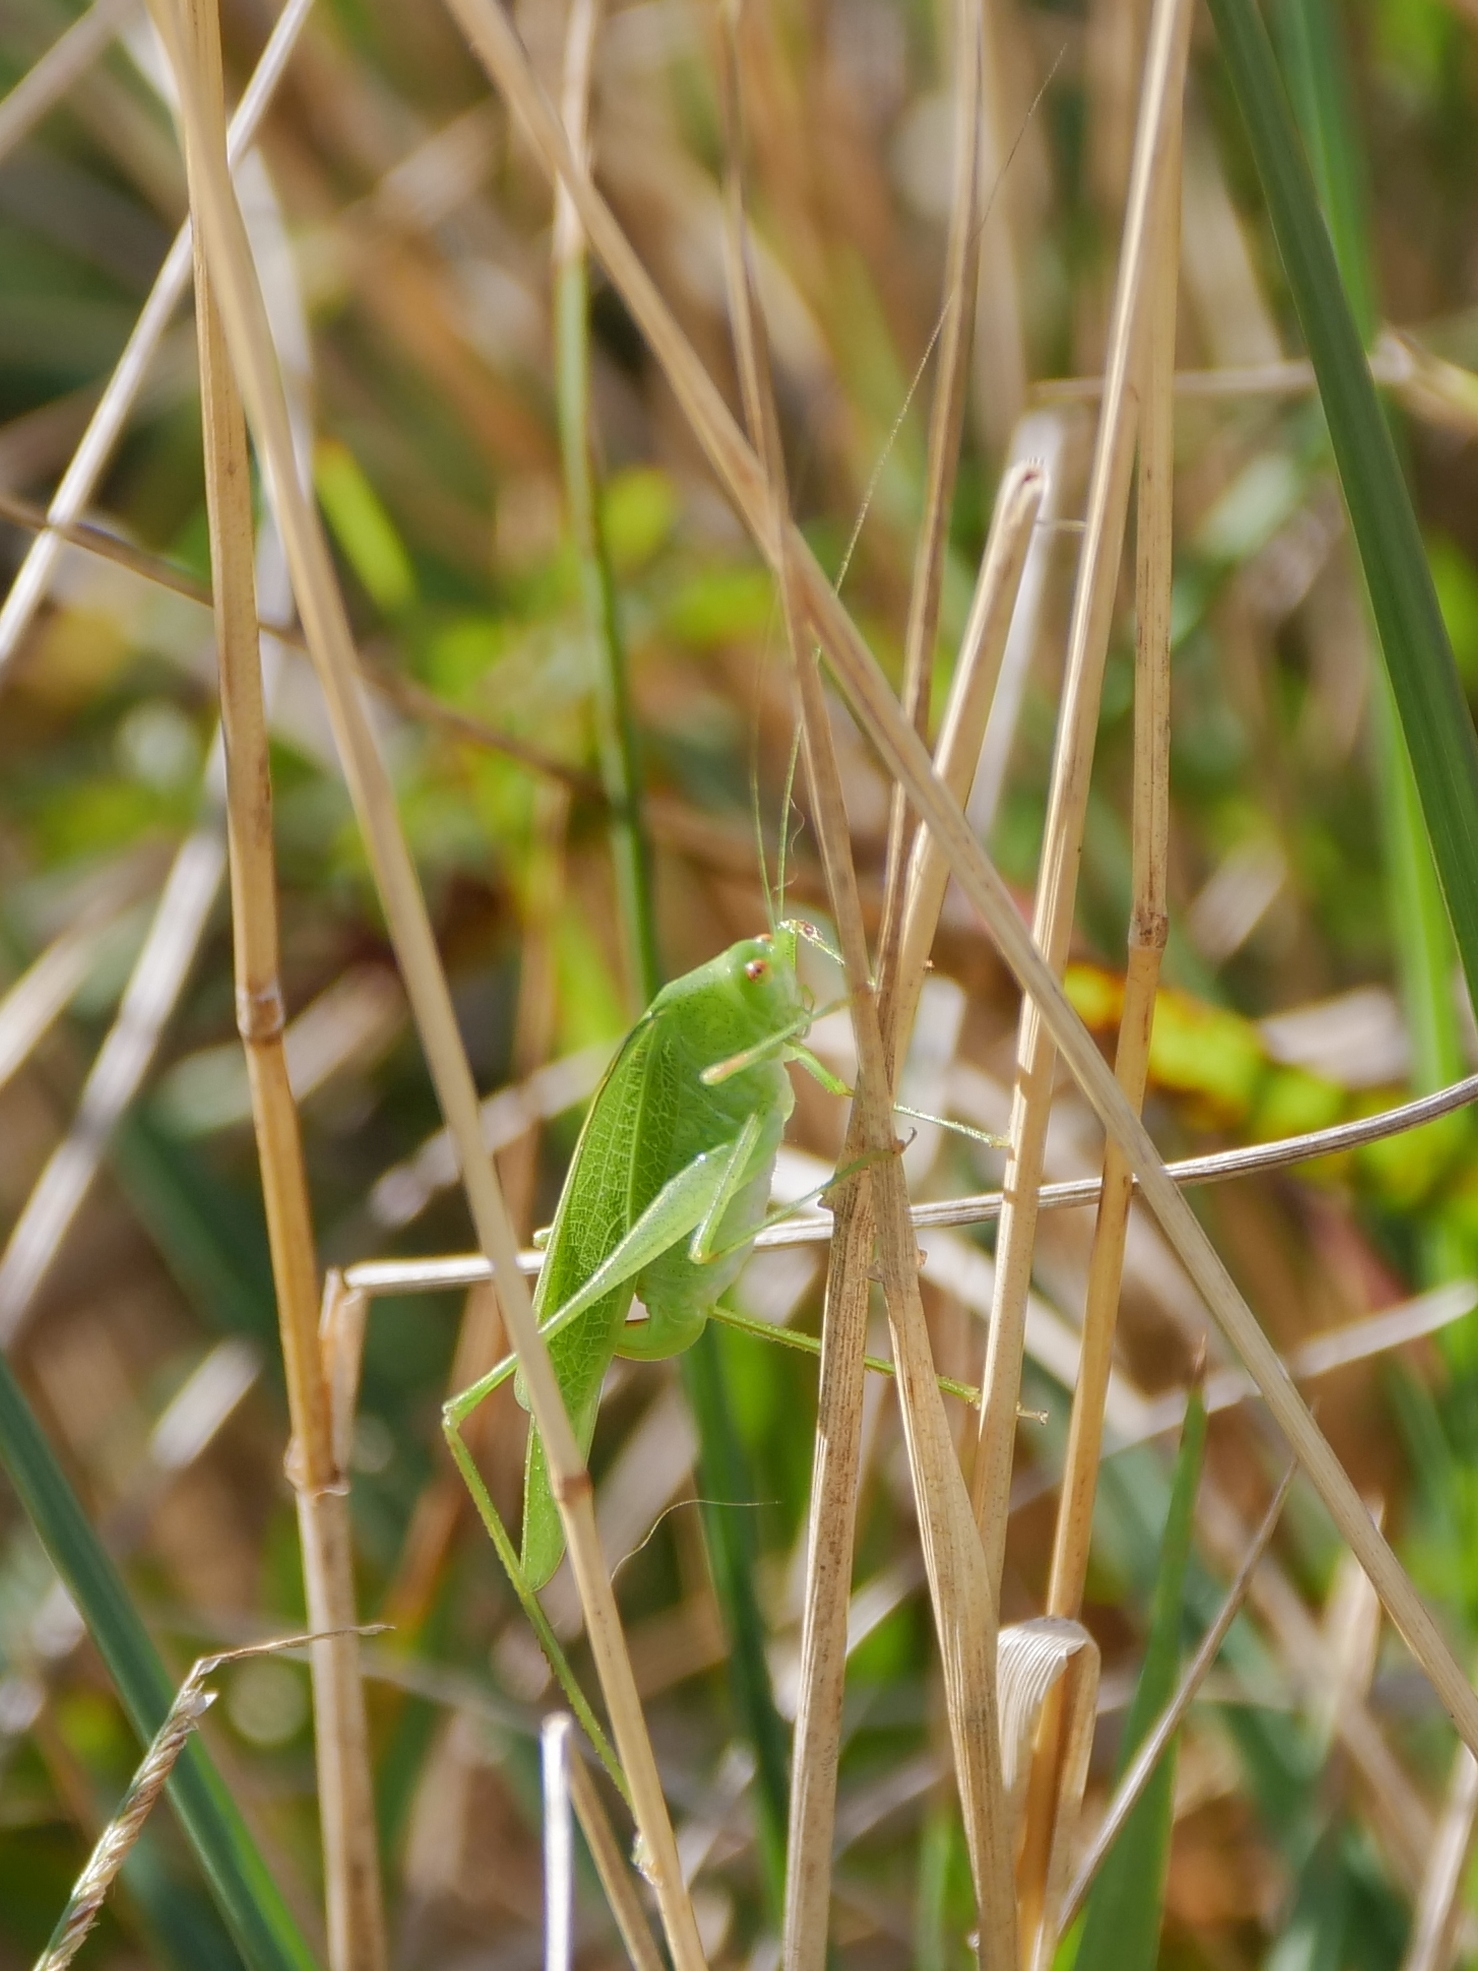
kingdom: Animalia
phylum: Arthropoda
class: Insecta
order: Orthoptera
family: Tettigoniidae
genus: Phaneroptera
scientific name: Phaneroptera nana
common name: Southern sickle bush-cricket
